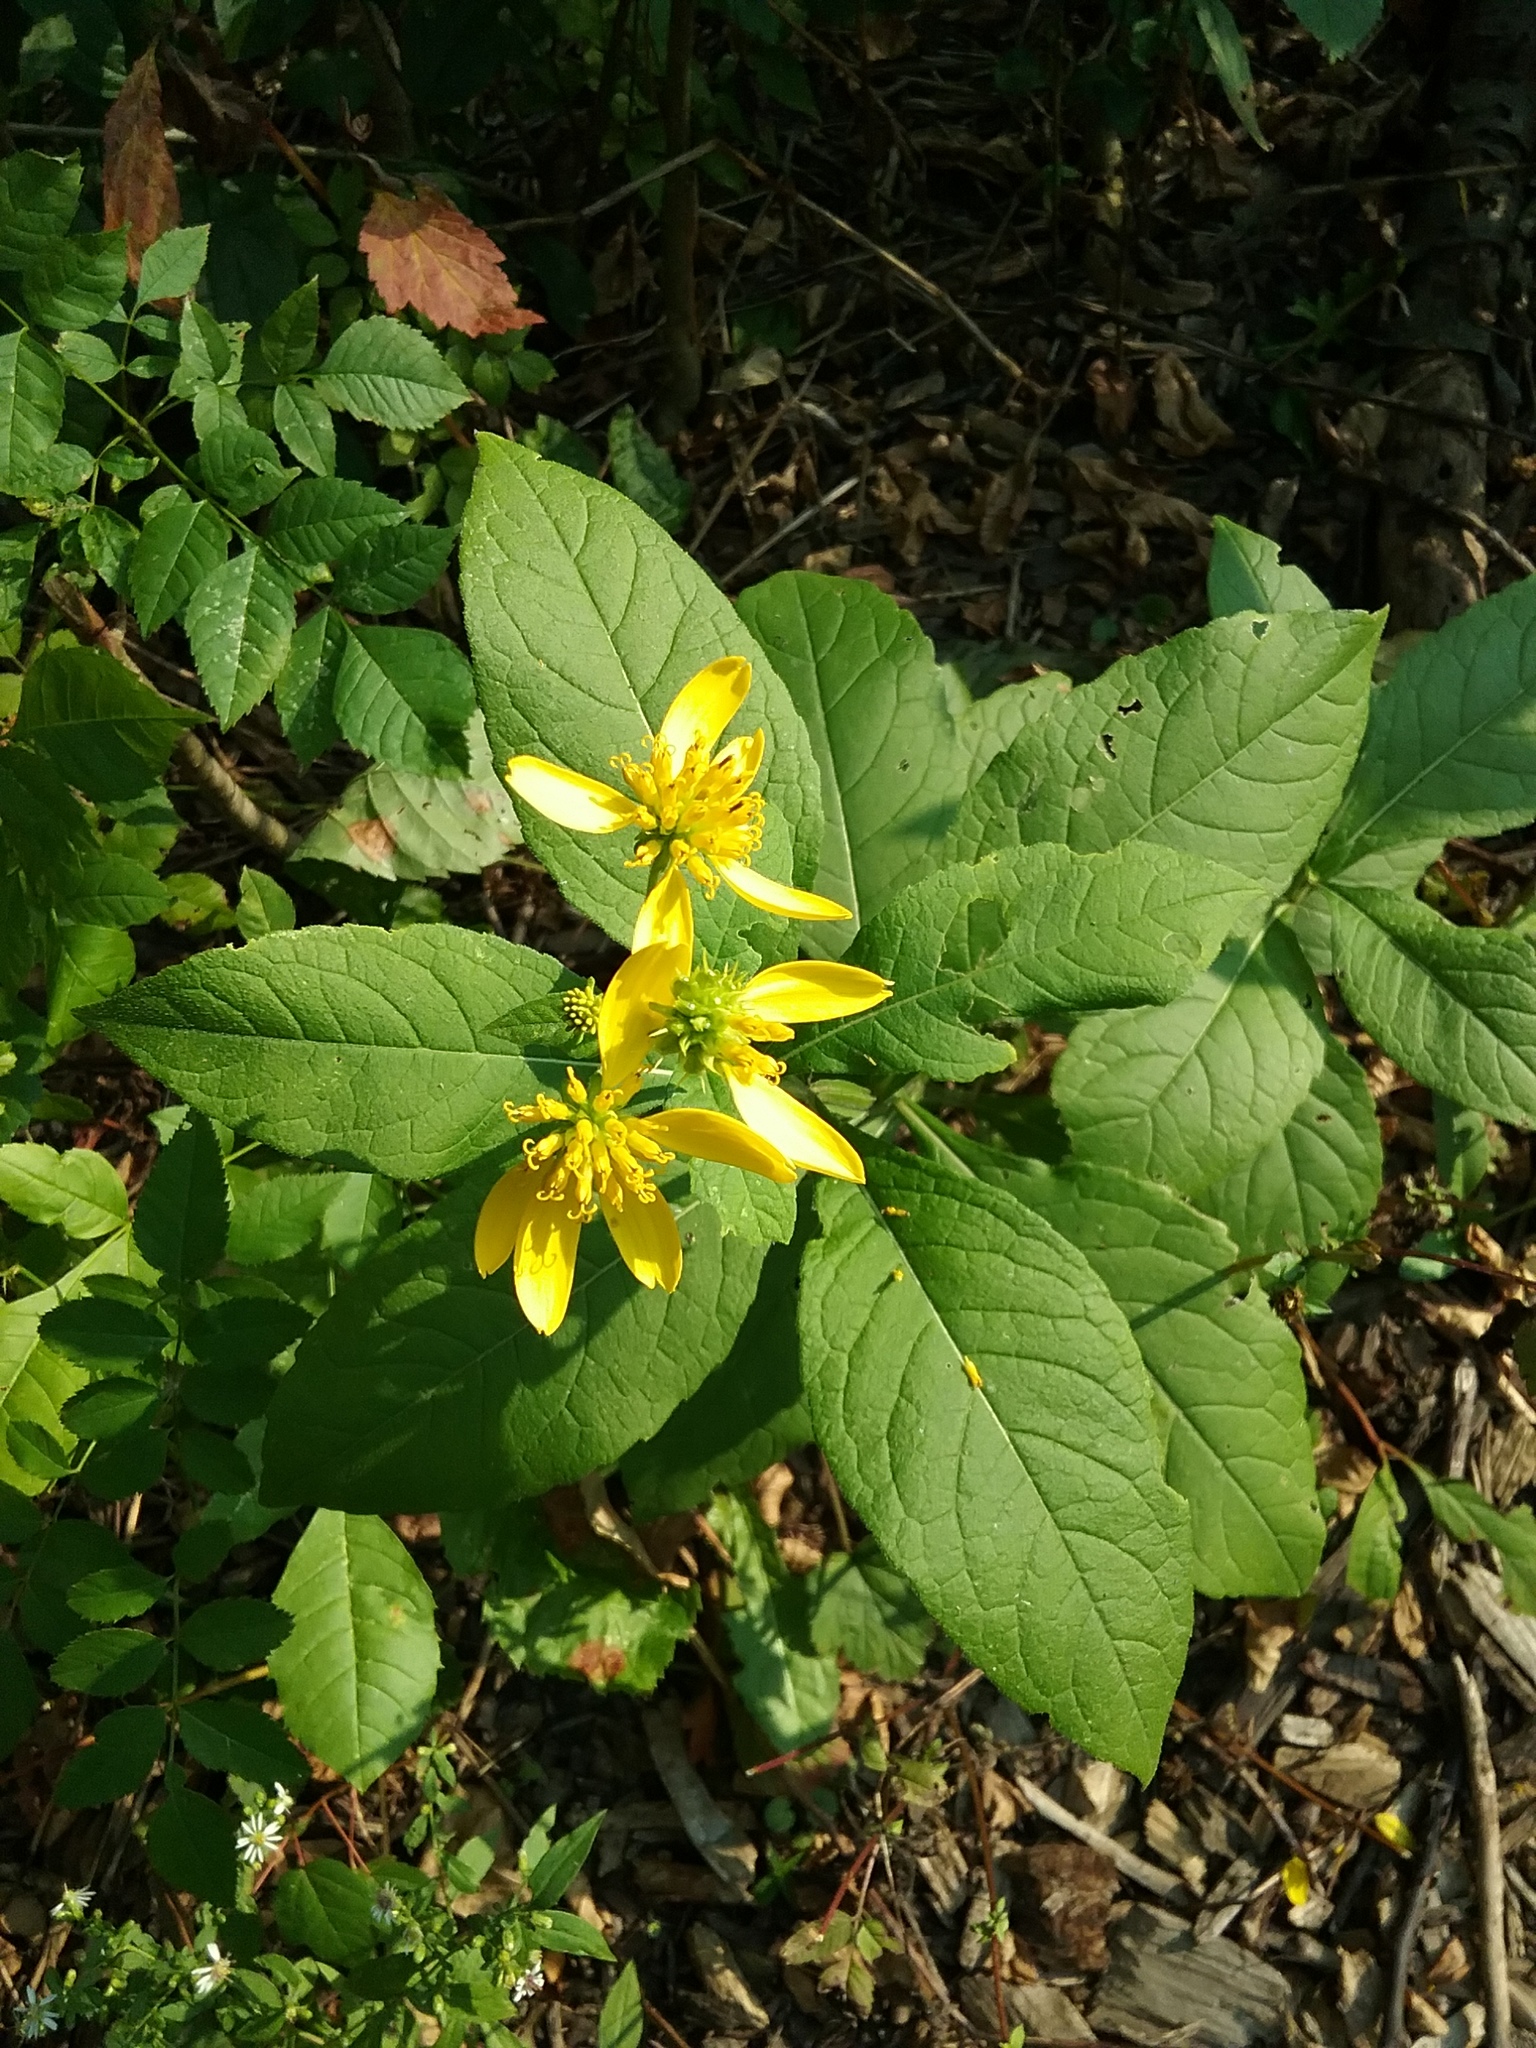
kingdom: Plantae
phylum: Tracheophyta
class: Magnoliopsida
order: Asterales
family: Asteraceae
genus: Verbesina
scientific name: Verbesina alternifolia
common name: Wingstem
